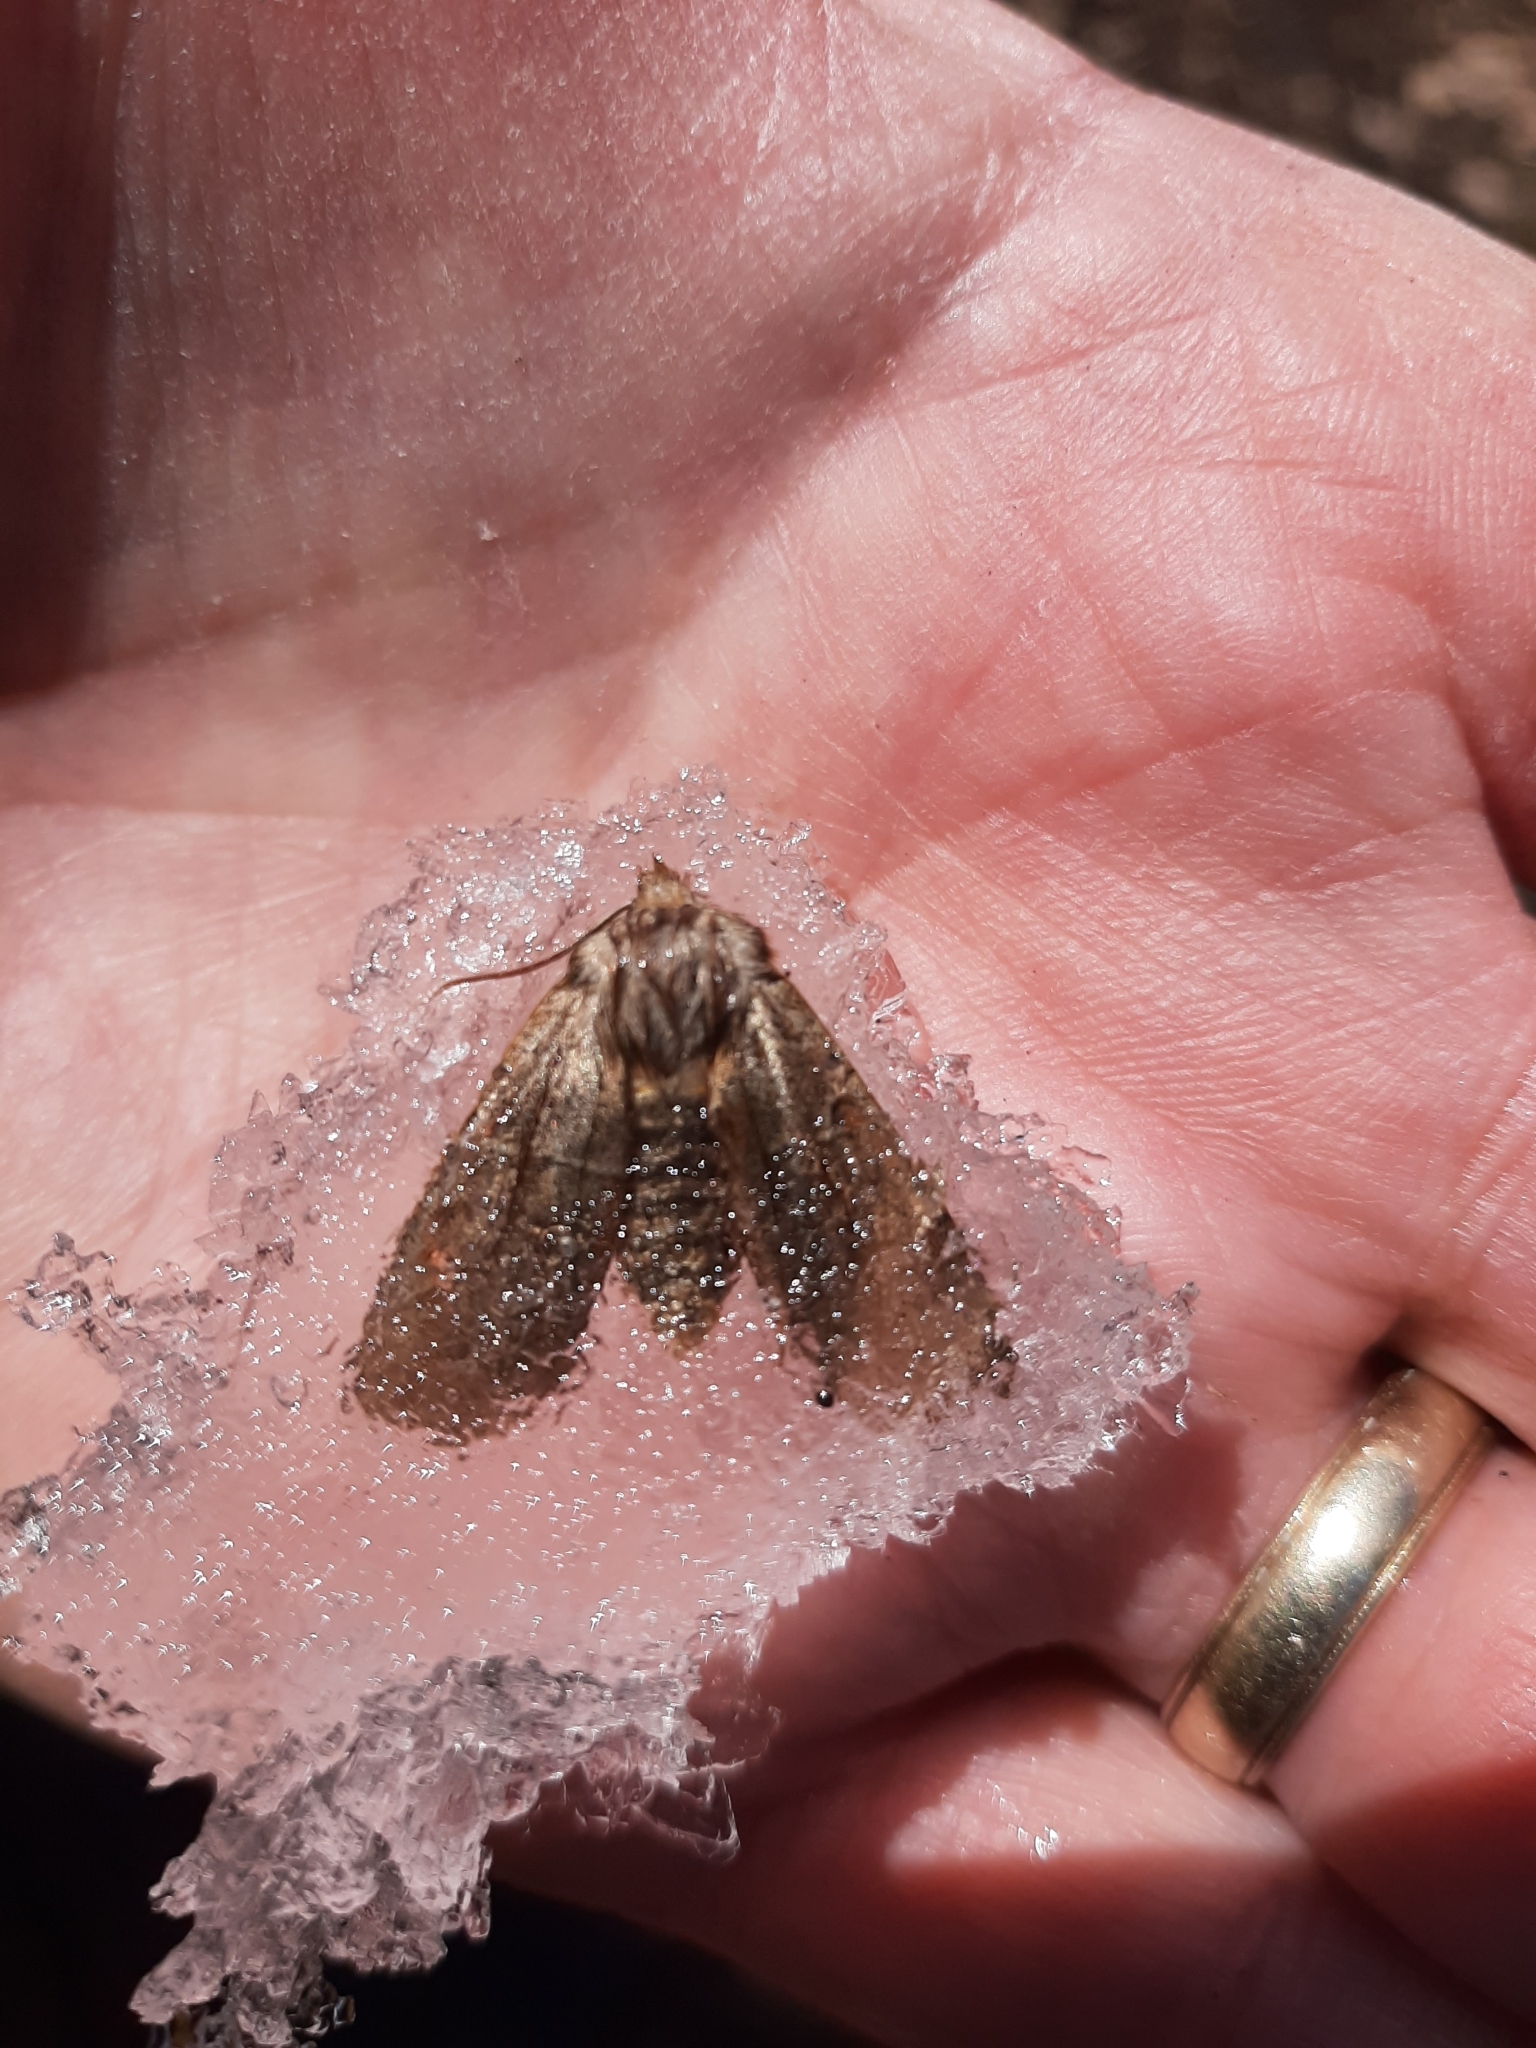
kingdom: Animalia
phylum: Arthropoda
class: Insecta
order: Lepidoptera
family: Noctuidae
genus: Eupsilia
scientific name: Eupsilia morrisoni
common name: Morrison's sallow
